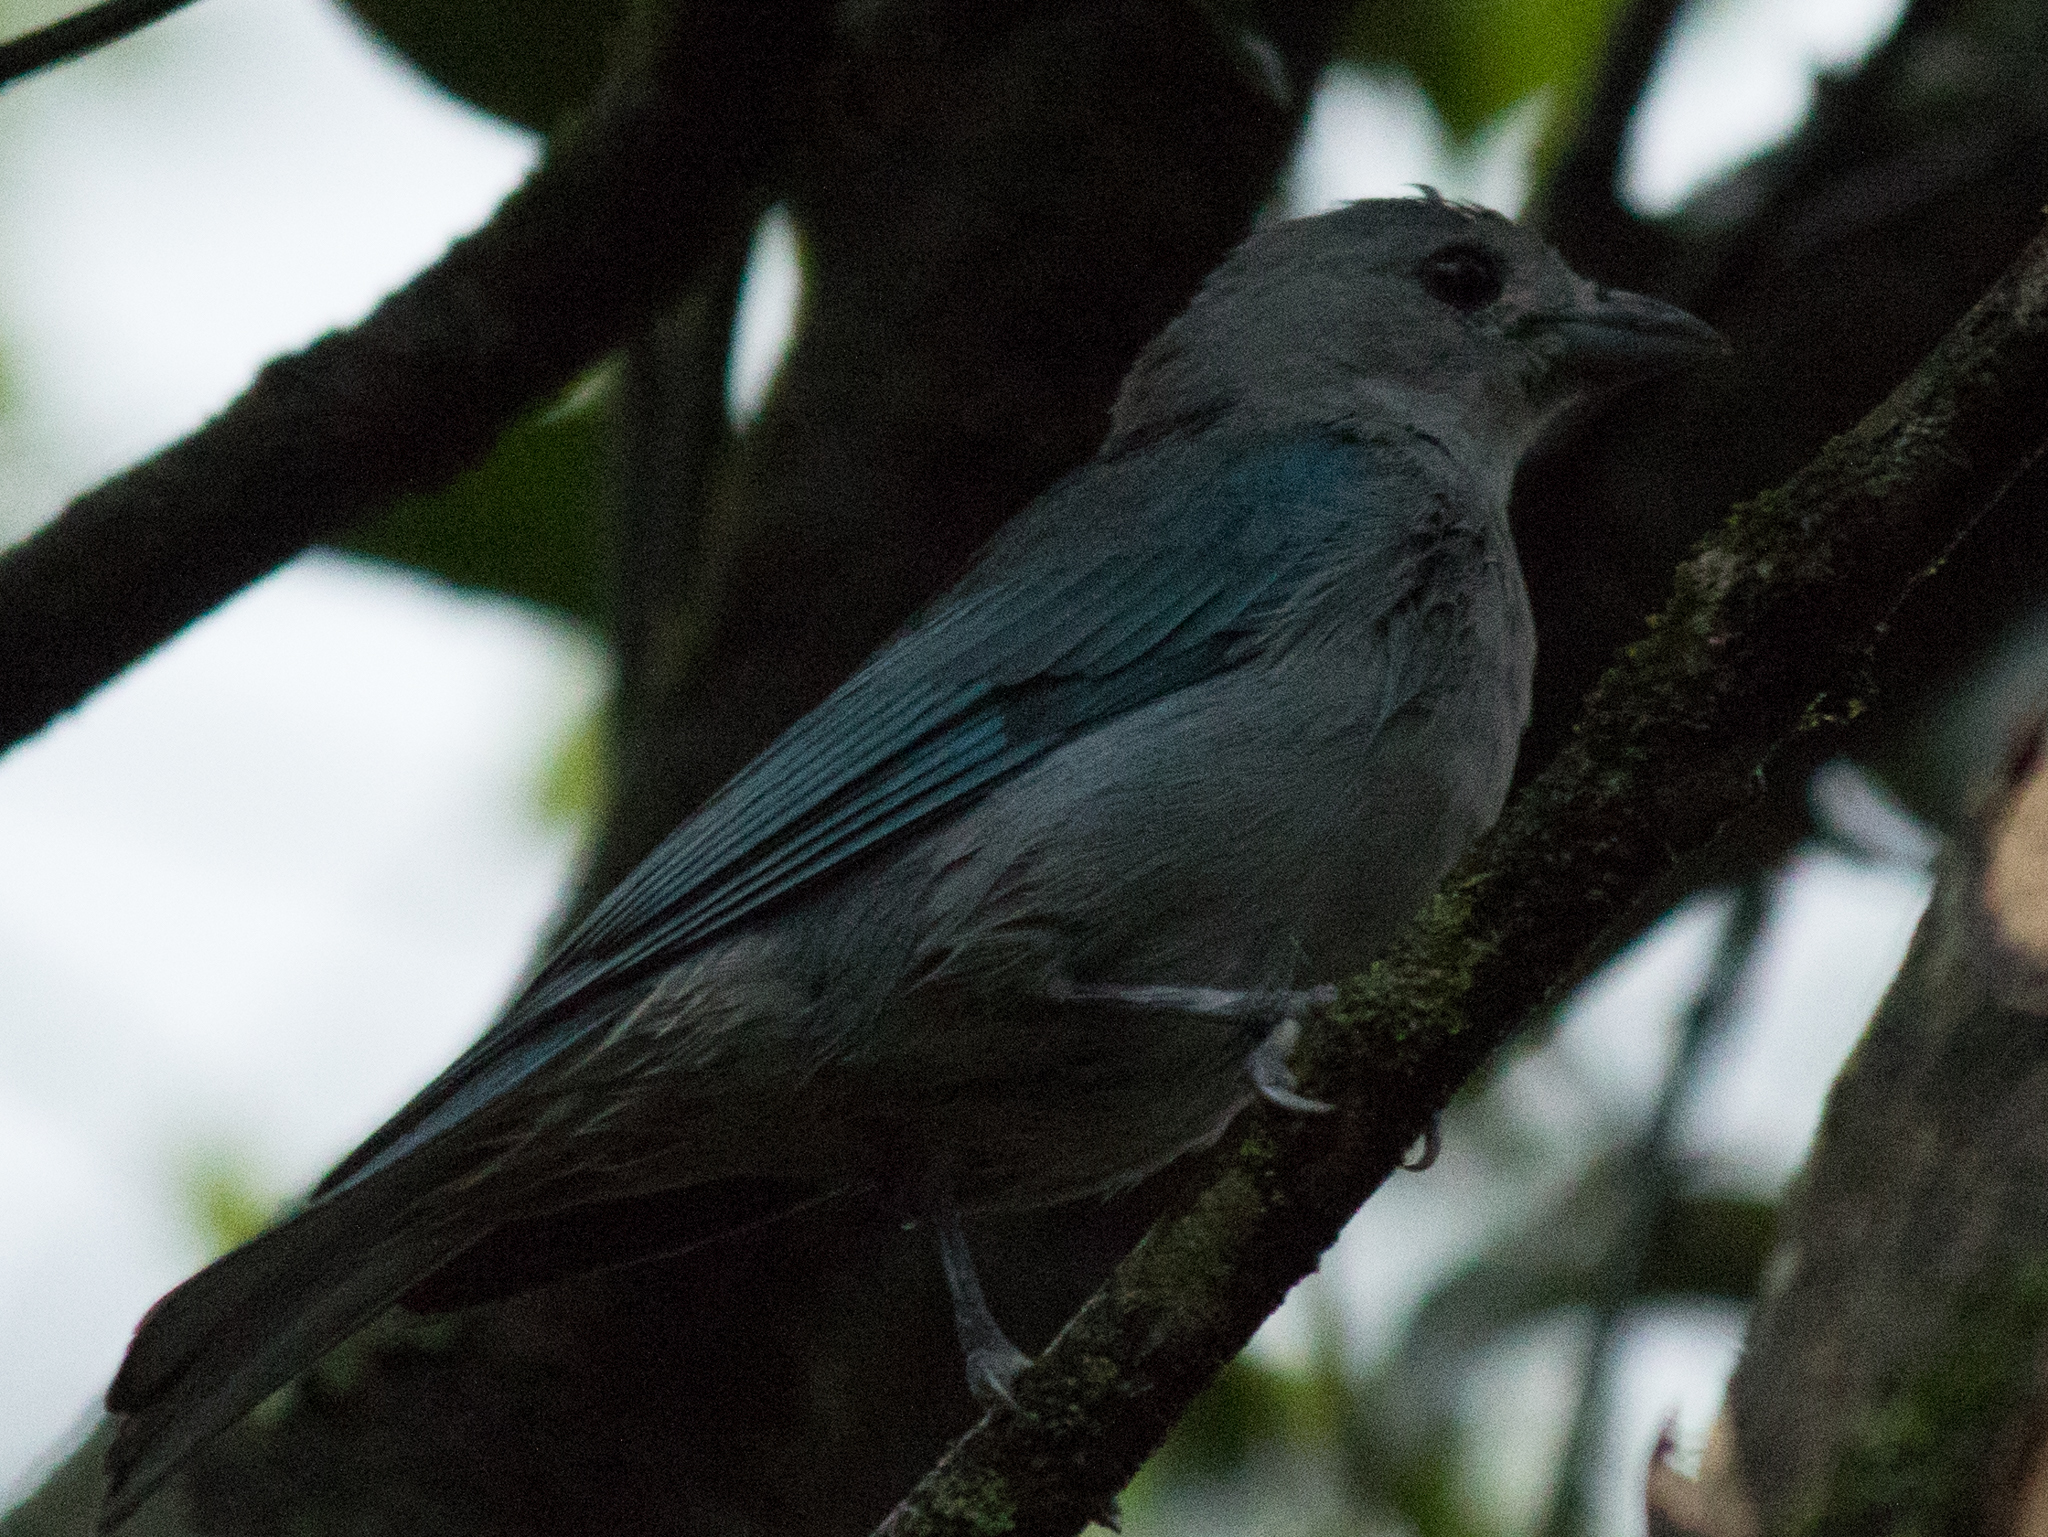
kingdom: Animalia
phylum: Chordata
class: Aves
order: Passeriformes
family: Thraupidae
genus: Thraupis
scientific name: Thraupis sayaca
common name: Sayaca tanager
